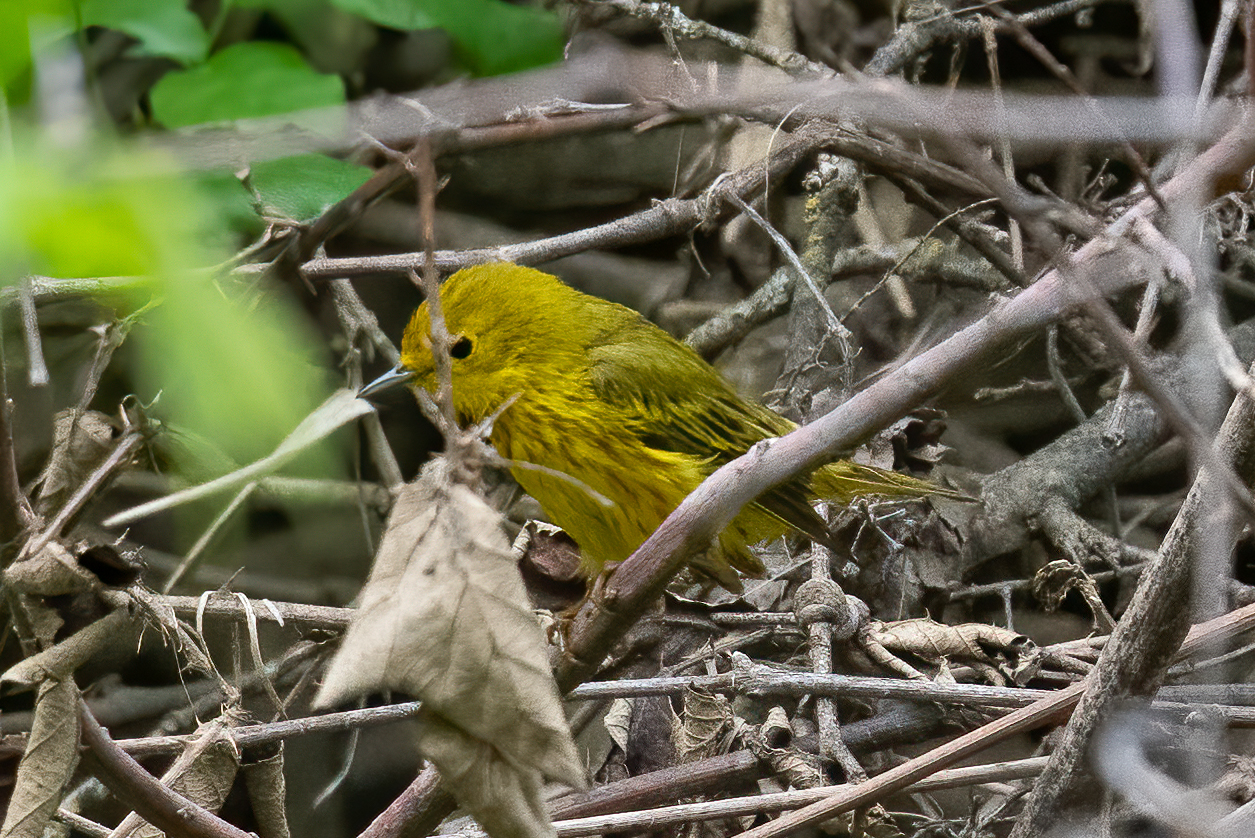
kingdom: Animalia
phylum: Chordata
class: Aves
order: Passeriformes
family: Parulidae
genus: Setophaga
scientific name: Setophaga petechia
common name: Yellow warbler
